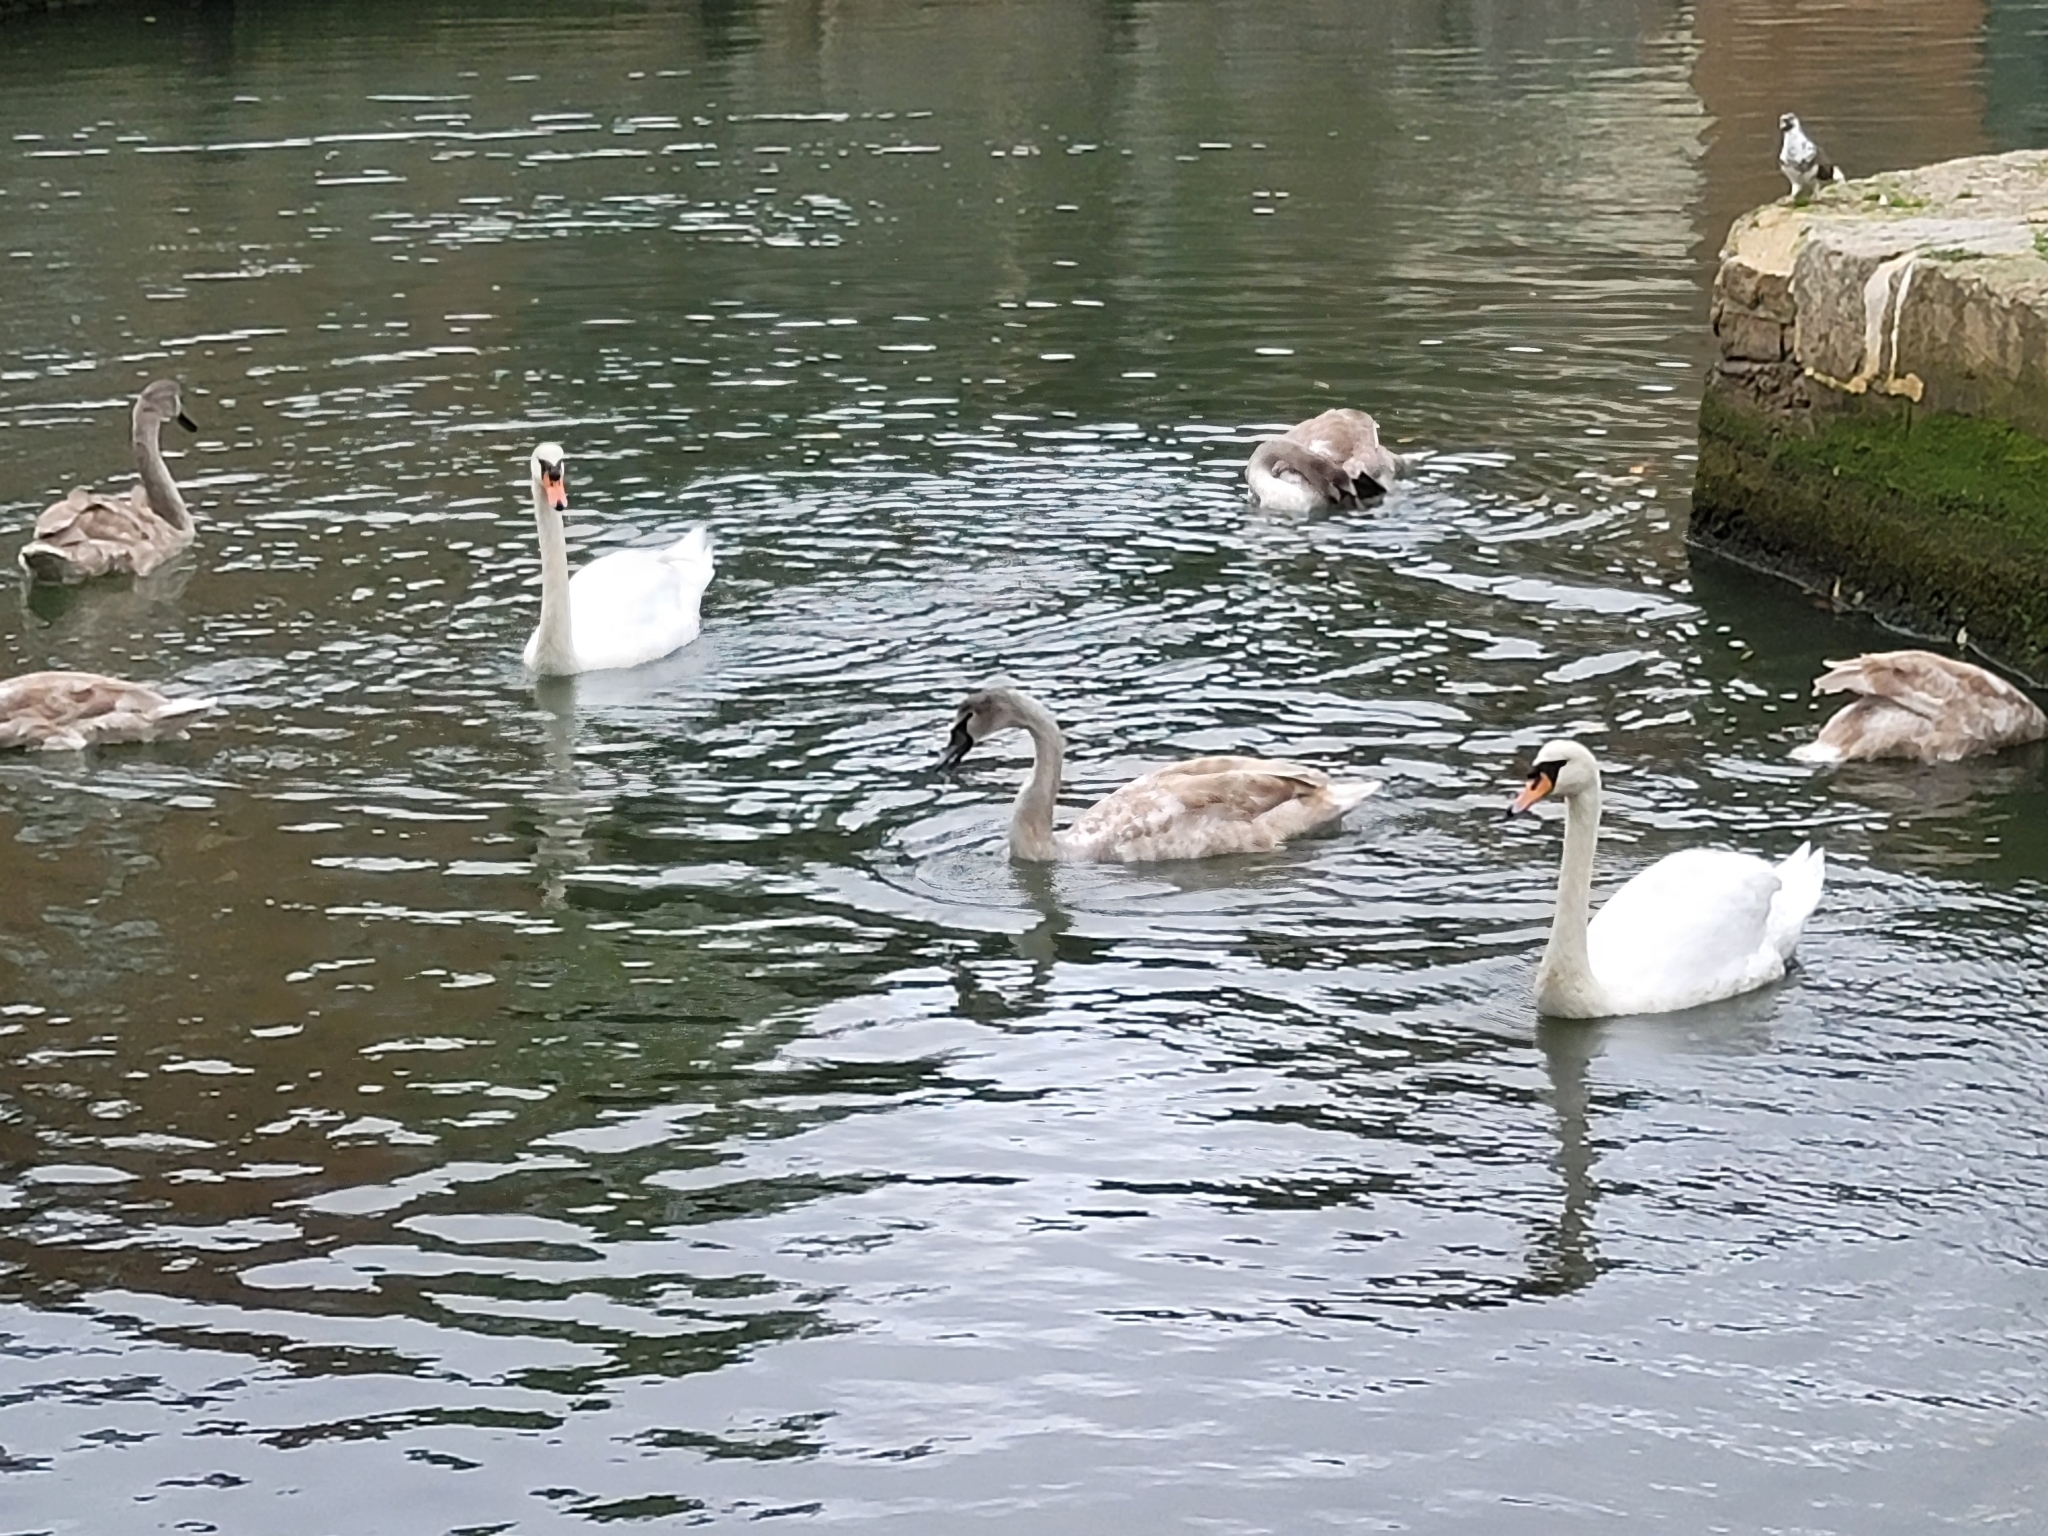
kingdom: Animalia
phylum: Chordata
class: Aves
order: Anseriformes
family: Anatidae
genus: Cygnus
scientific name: Cygnus olor
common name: Mute swan
